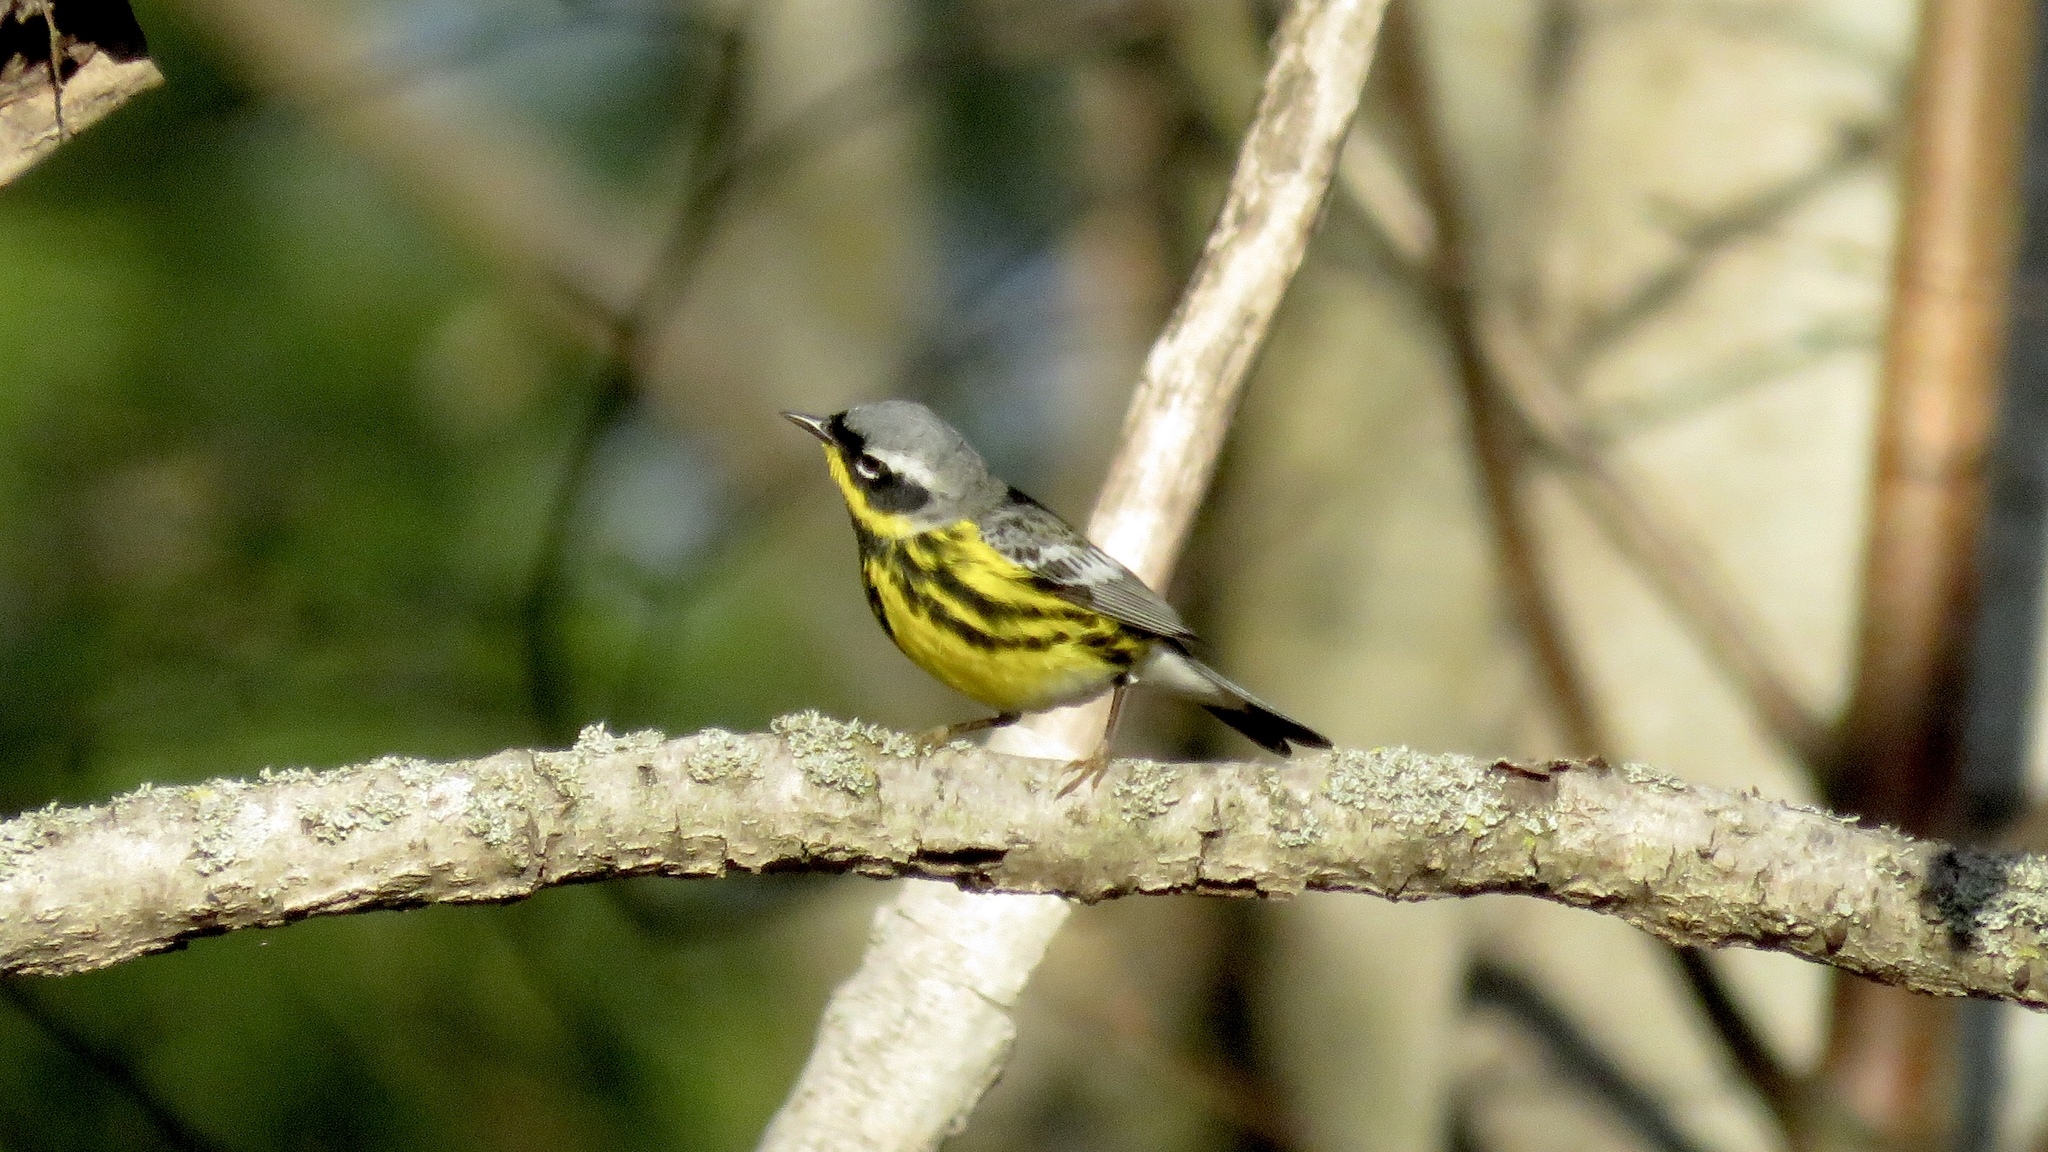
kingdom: Animalia
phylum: Chordata
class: Aves
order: Passeriformes
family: Parulidae
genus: Setophaga
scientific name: Setophaga magnolia
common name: Magnolia warbler
